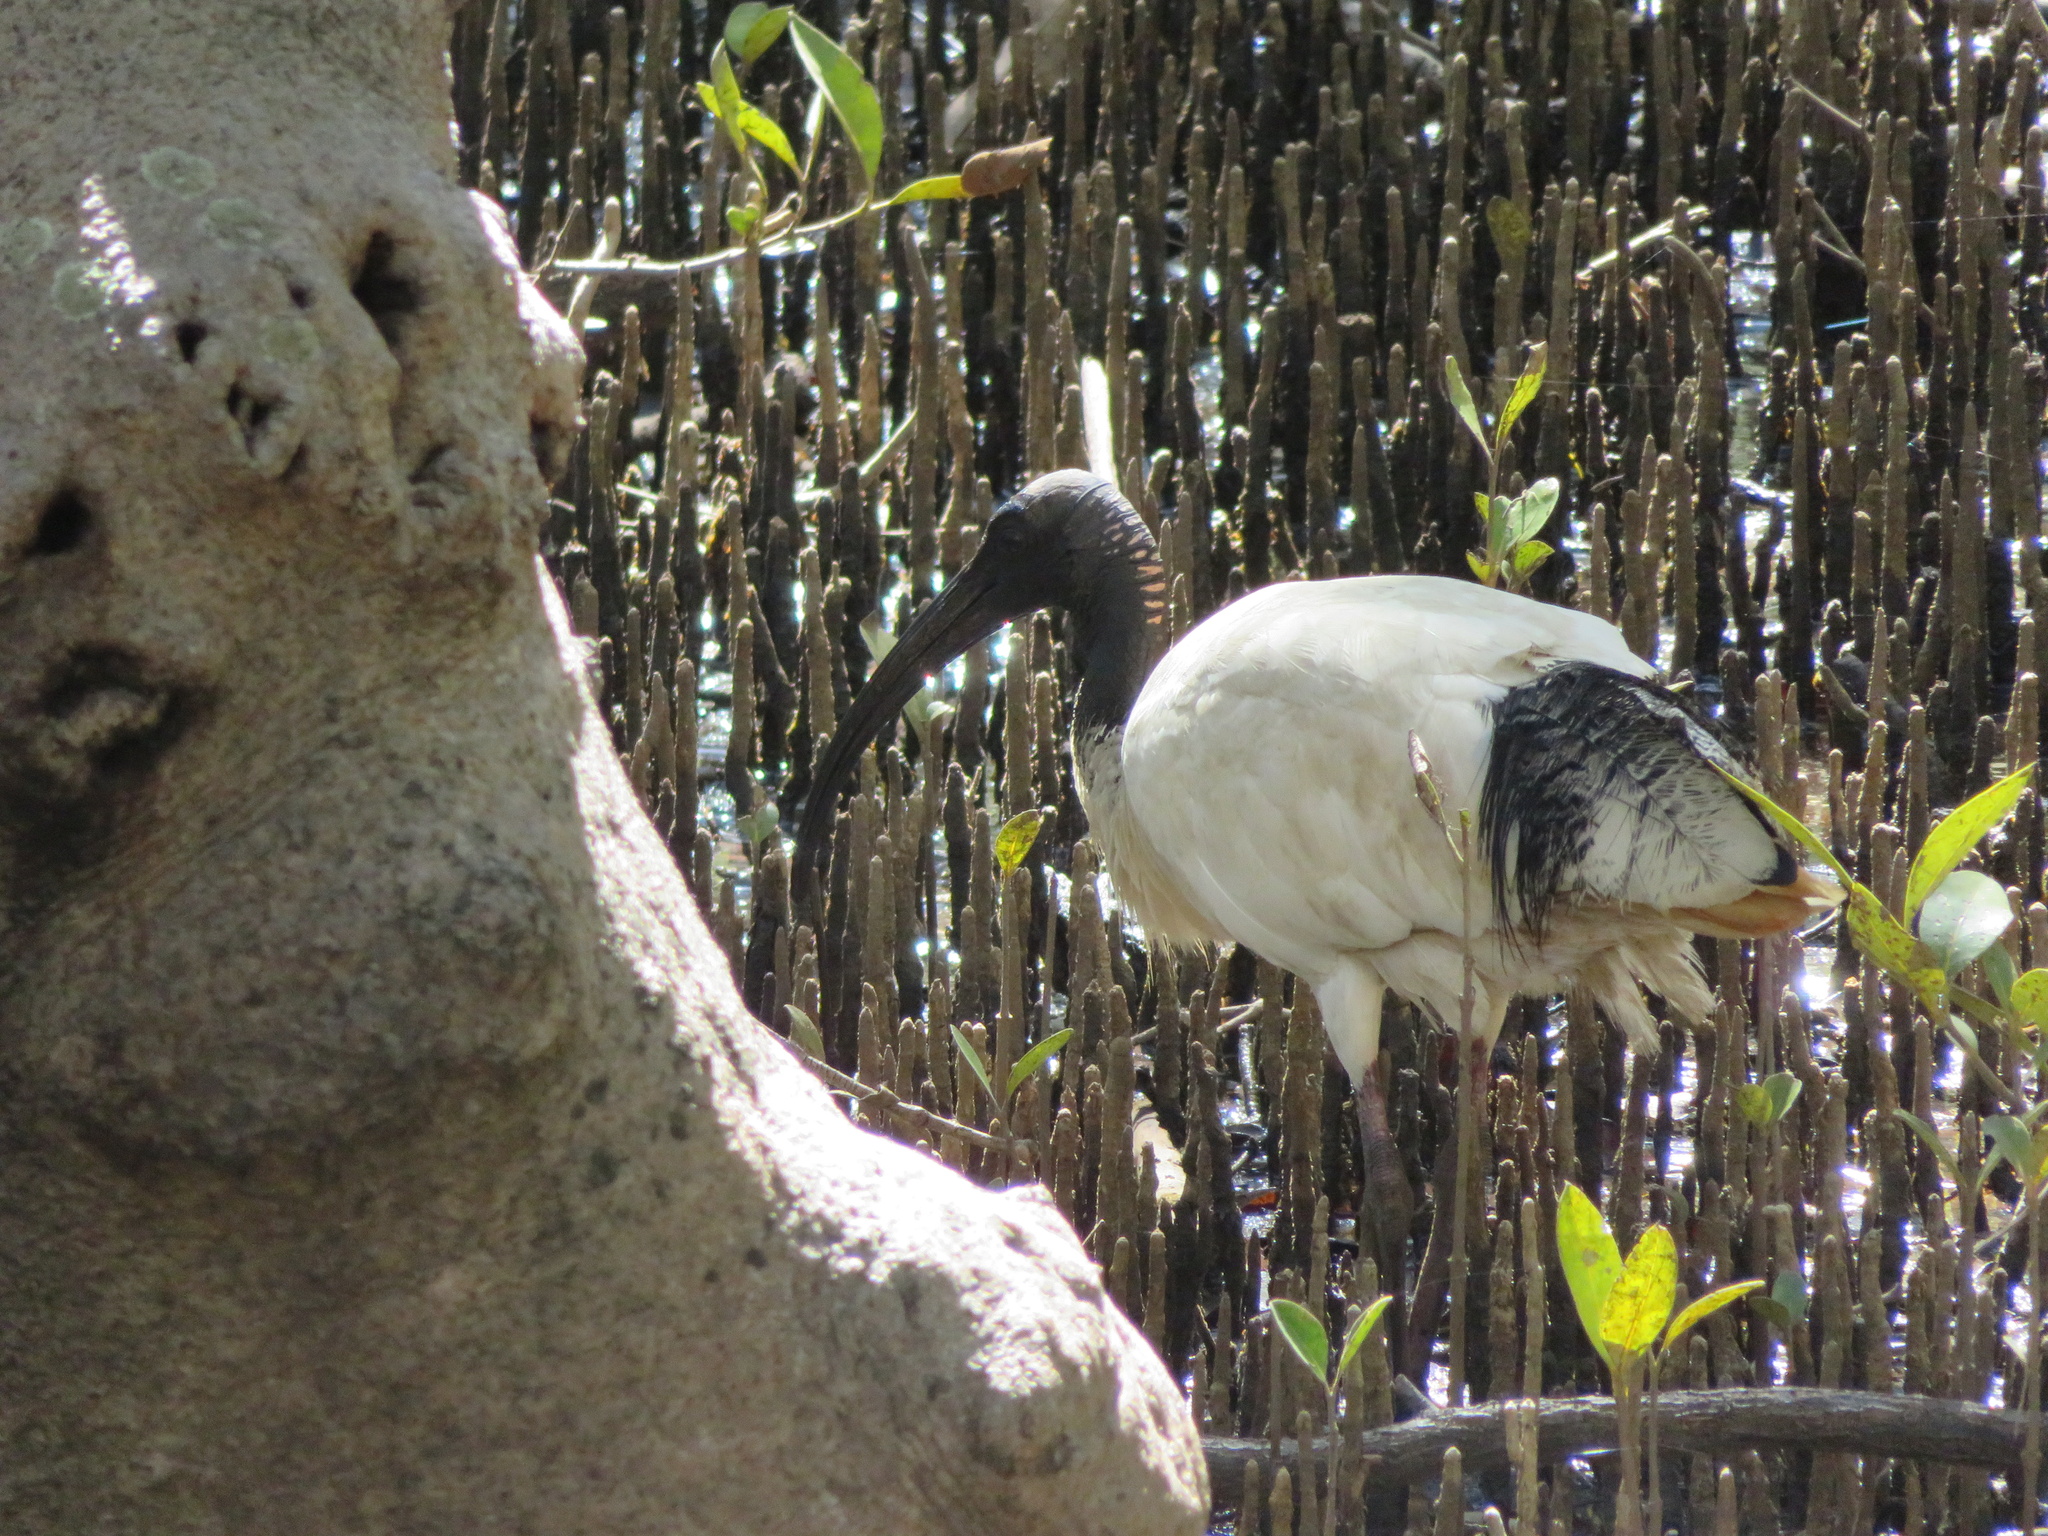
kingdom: Animalia
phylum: Chordata
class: Aves
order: Pelecaniformes
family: Threskiornithidae
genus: Threskiornis
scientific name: Threskiornis molucca
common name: Australian white ibis
